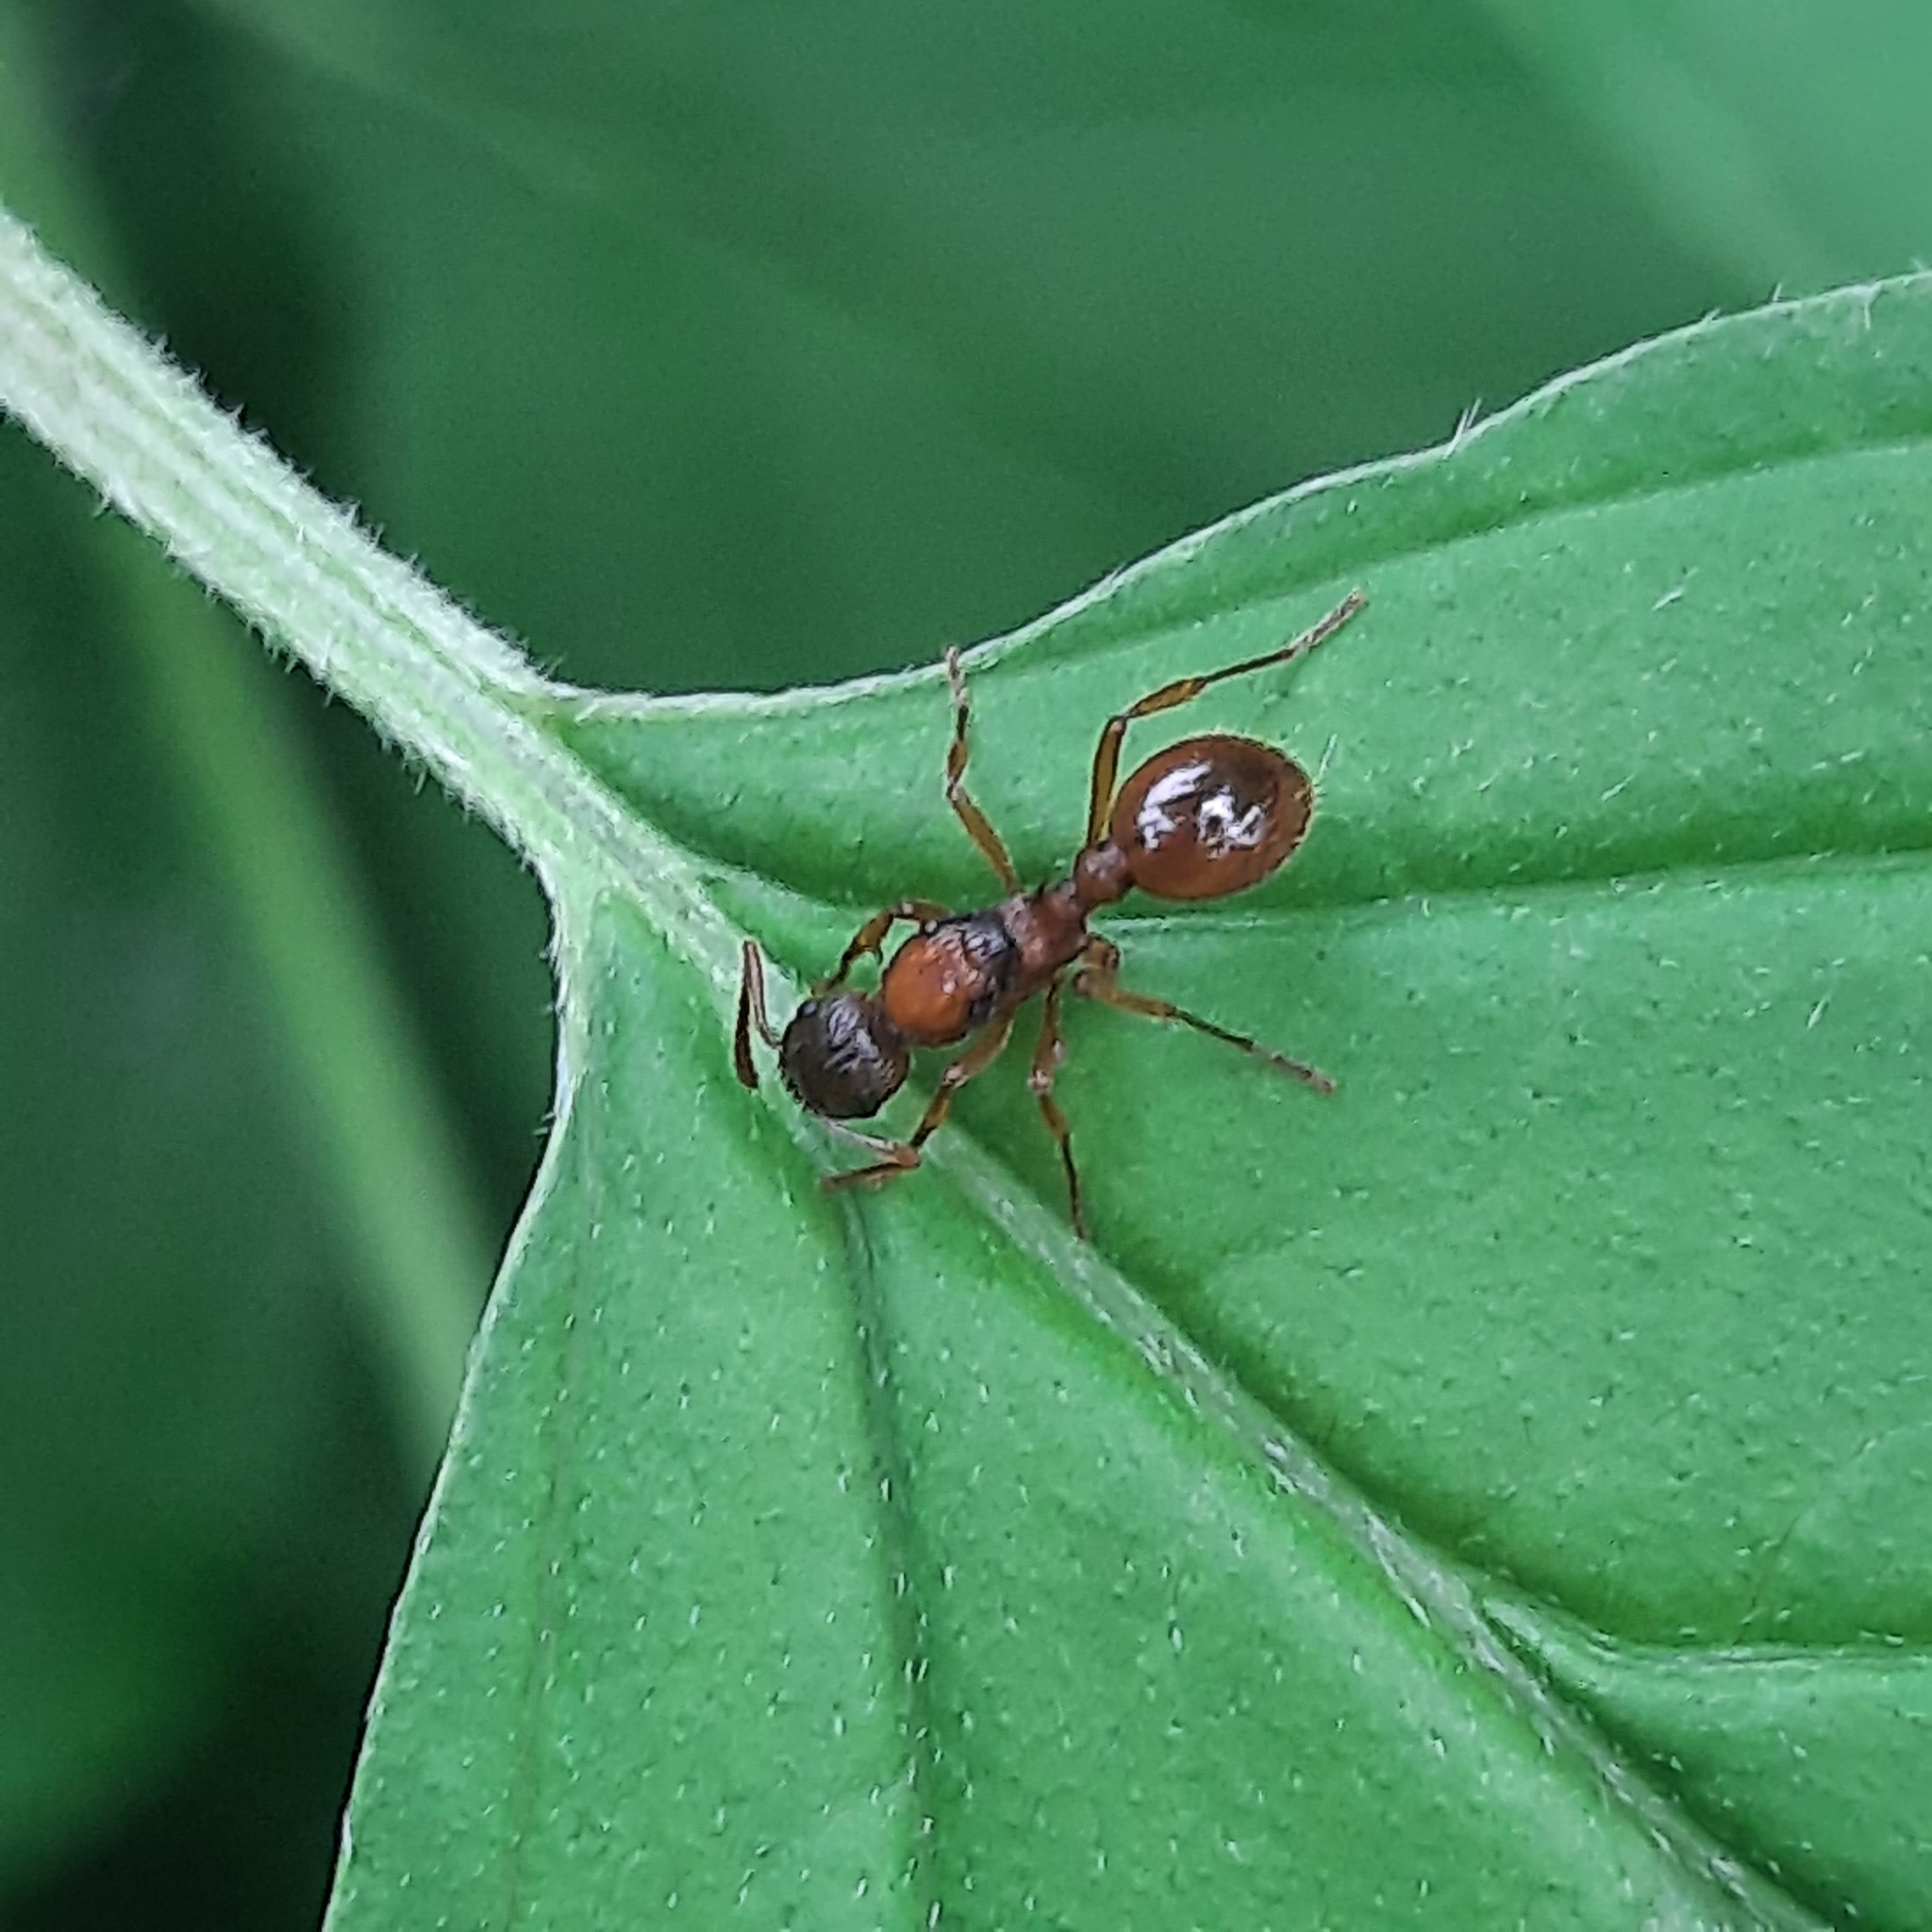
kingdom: Animalia
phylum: Arthropoda
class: Insecta
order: Hymenoptera
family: Formicidae
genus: Myrmica
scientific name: Myrmica
